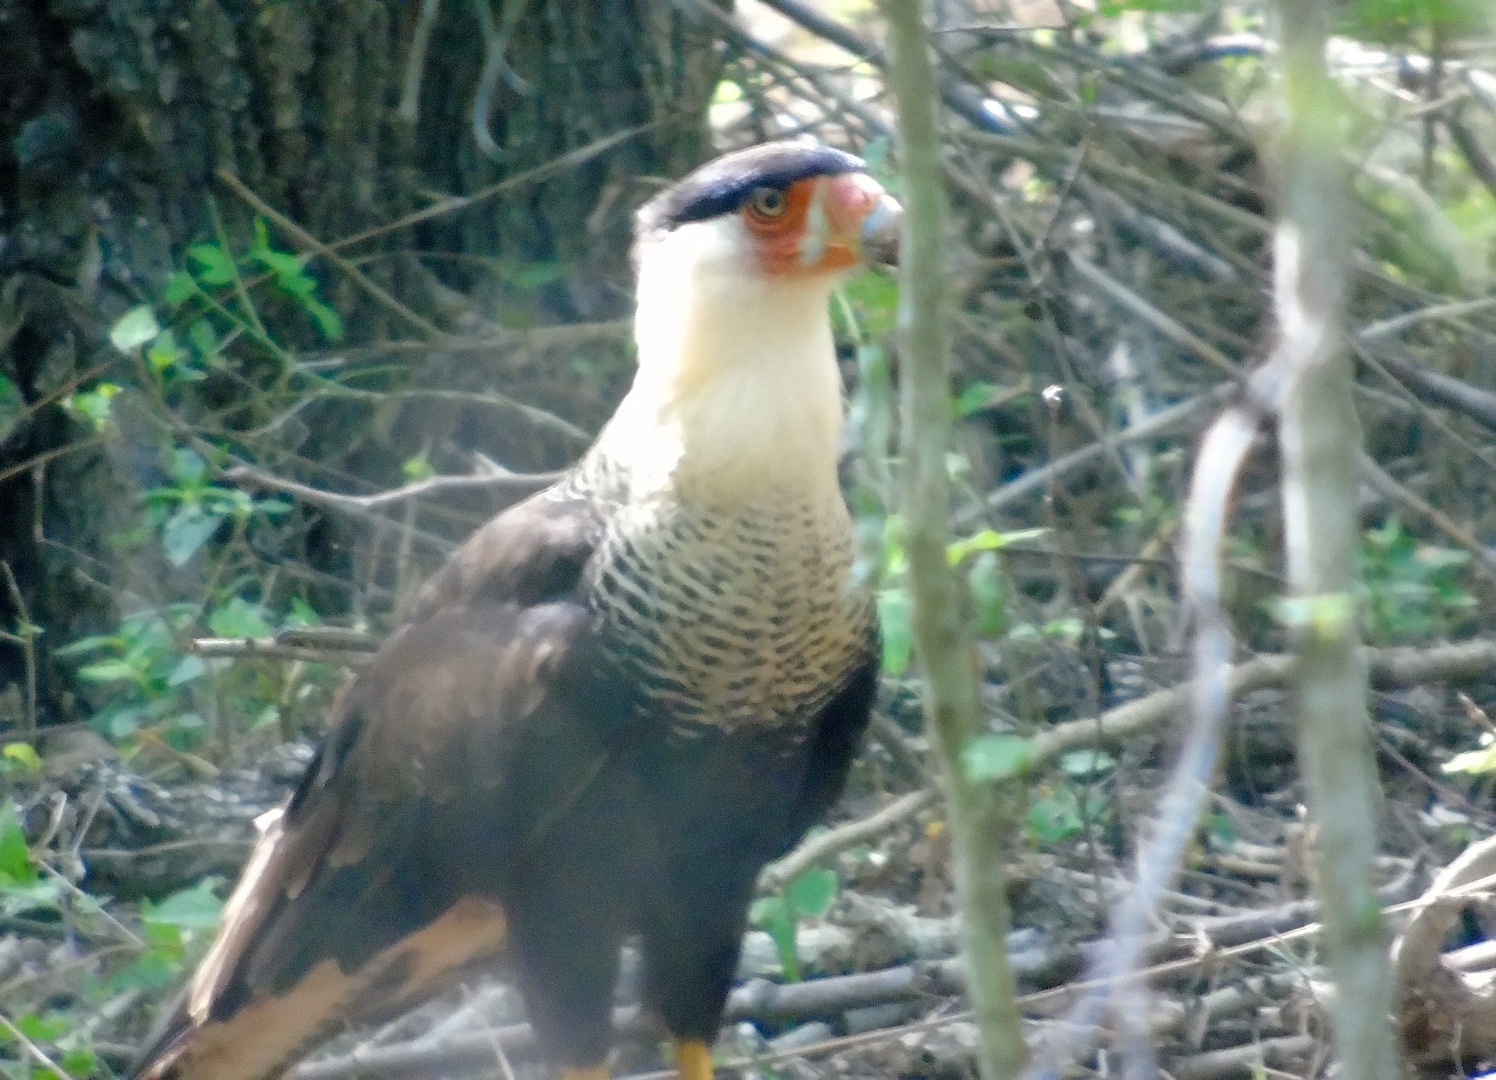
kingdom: Animalia
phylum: Chordata
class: Aves
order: Falconiformes
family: Falconidae
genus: Caracara
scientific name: Caracara plancus
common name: Southern caracara
